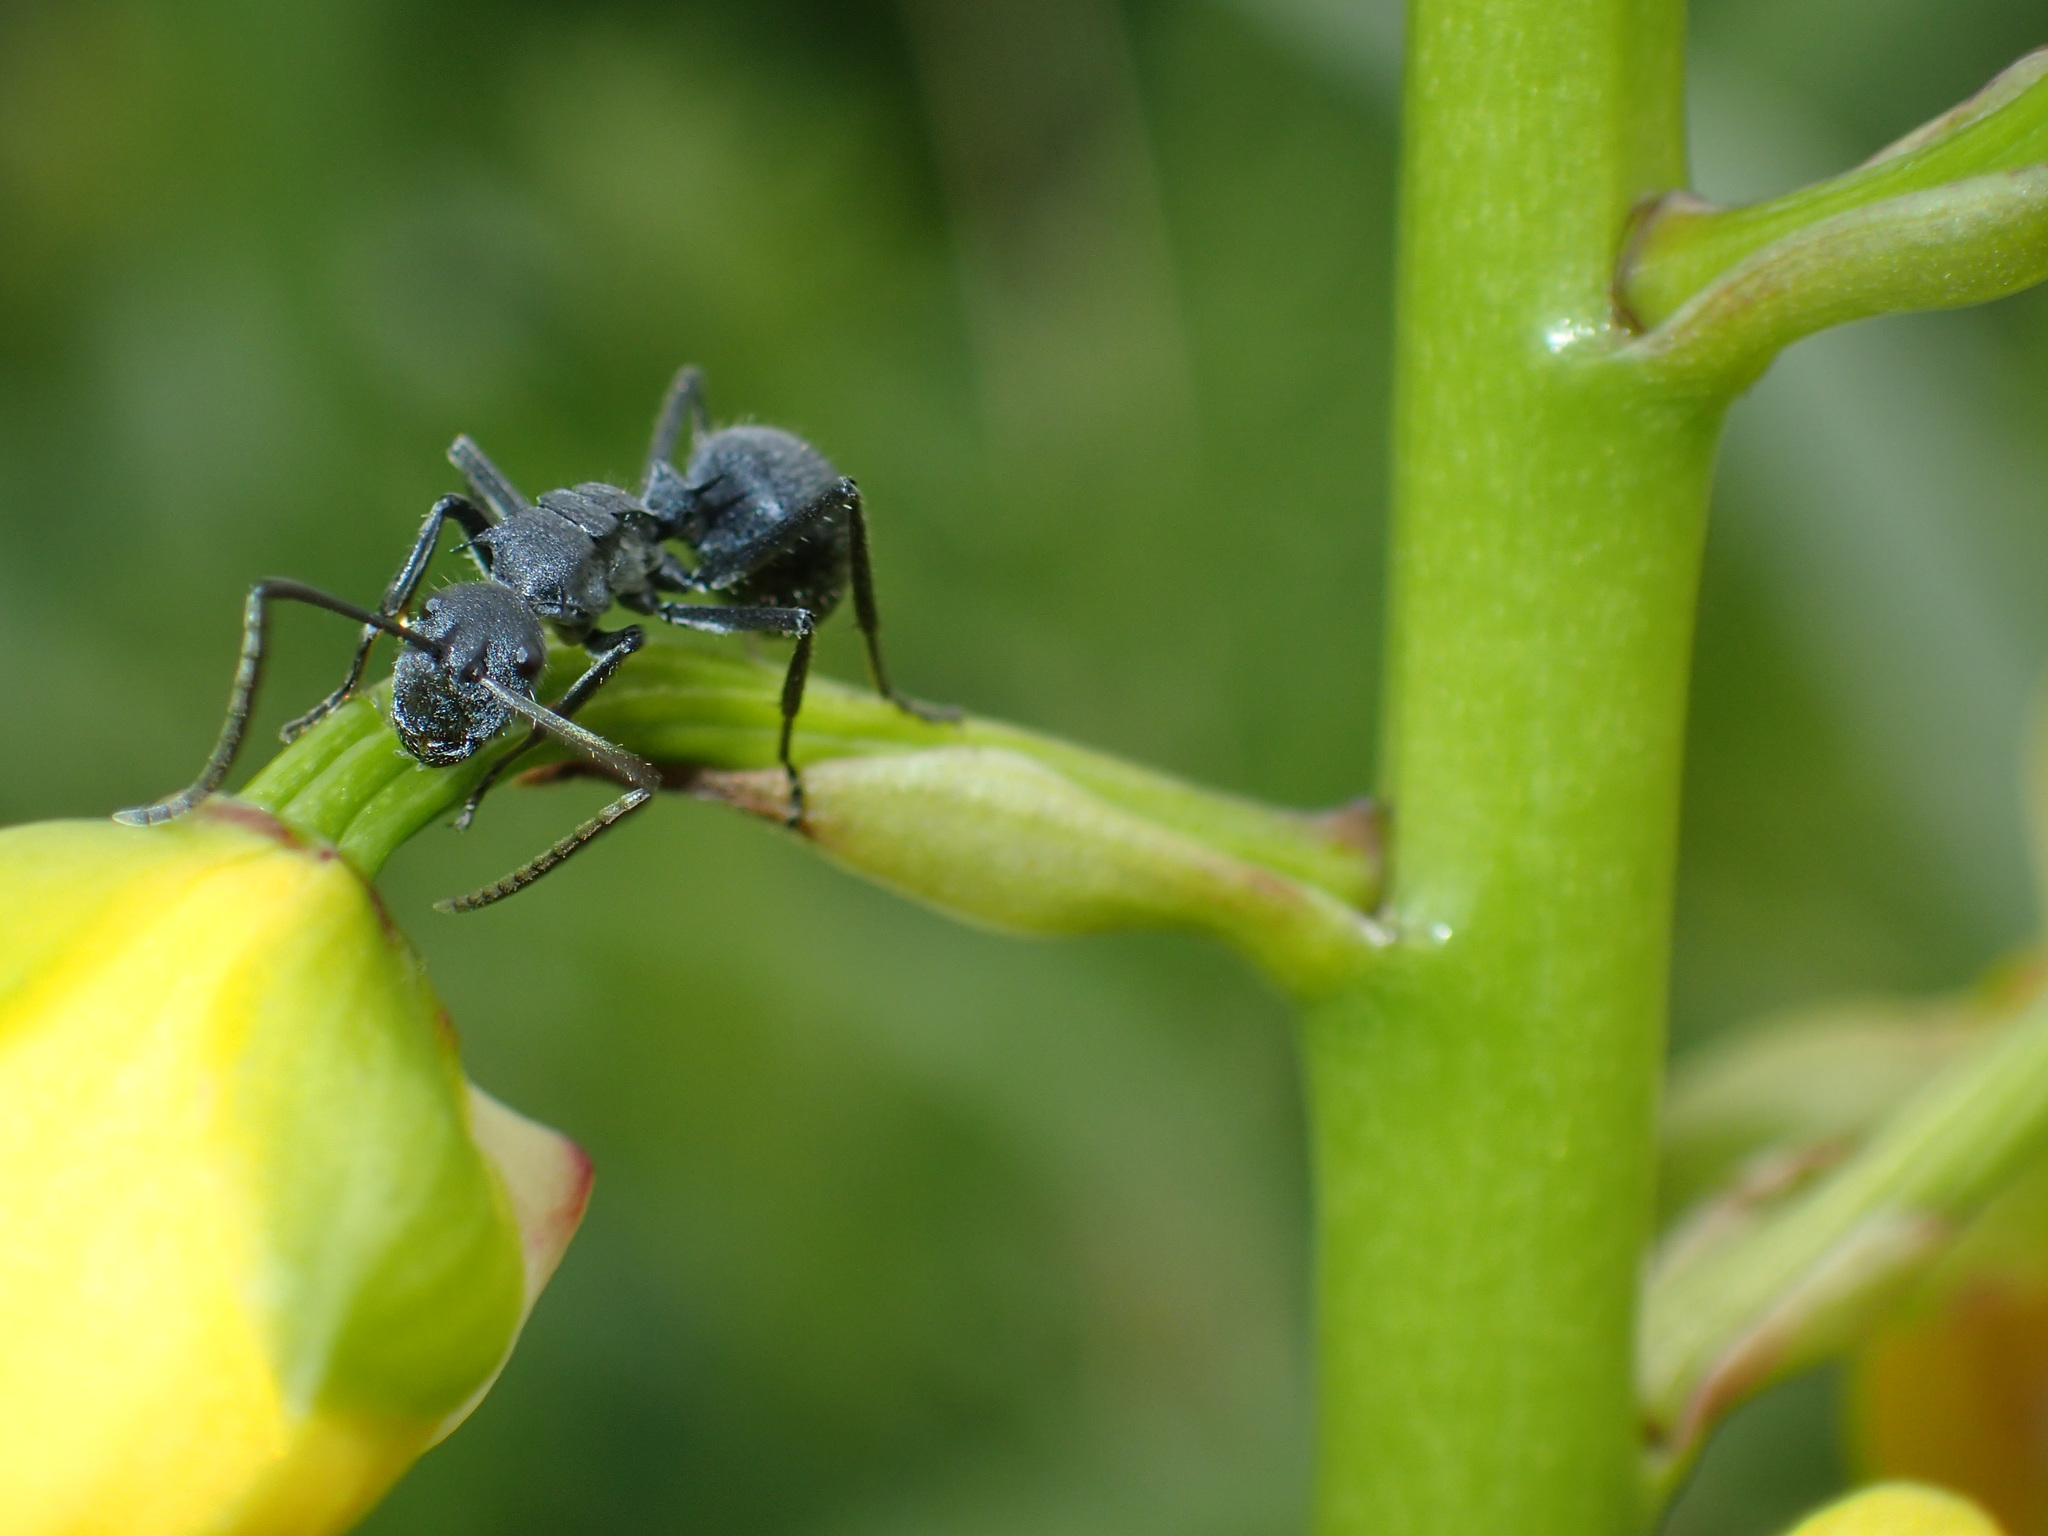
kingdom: Animalia
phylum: Arthropoda
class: Insecta
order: Hymenoptera
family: Formicidae
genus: Polyrhachis
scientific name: Polyrhachis schistacea
